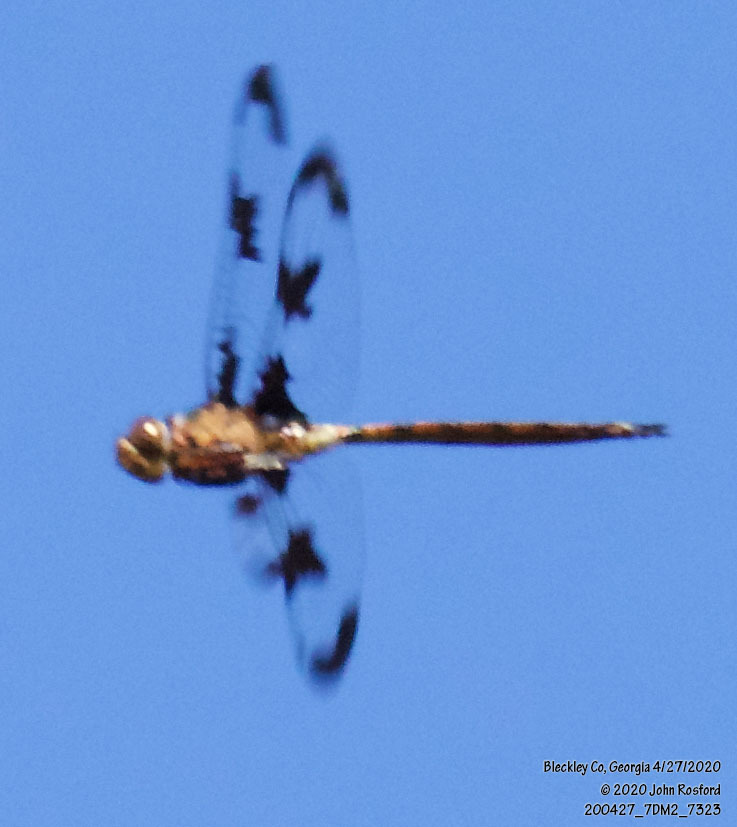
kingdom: Animalia
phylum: Arthropoda
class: Insecta
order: Odonata
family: Corduliidae
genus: Epitheca
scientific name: Epitheca princeps
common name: Prince baskettail
